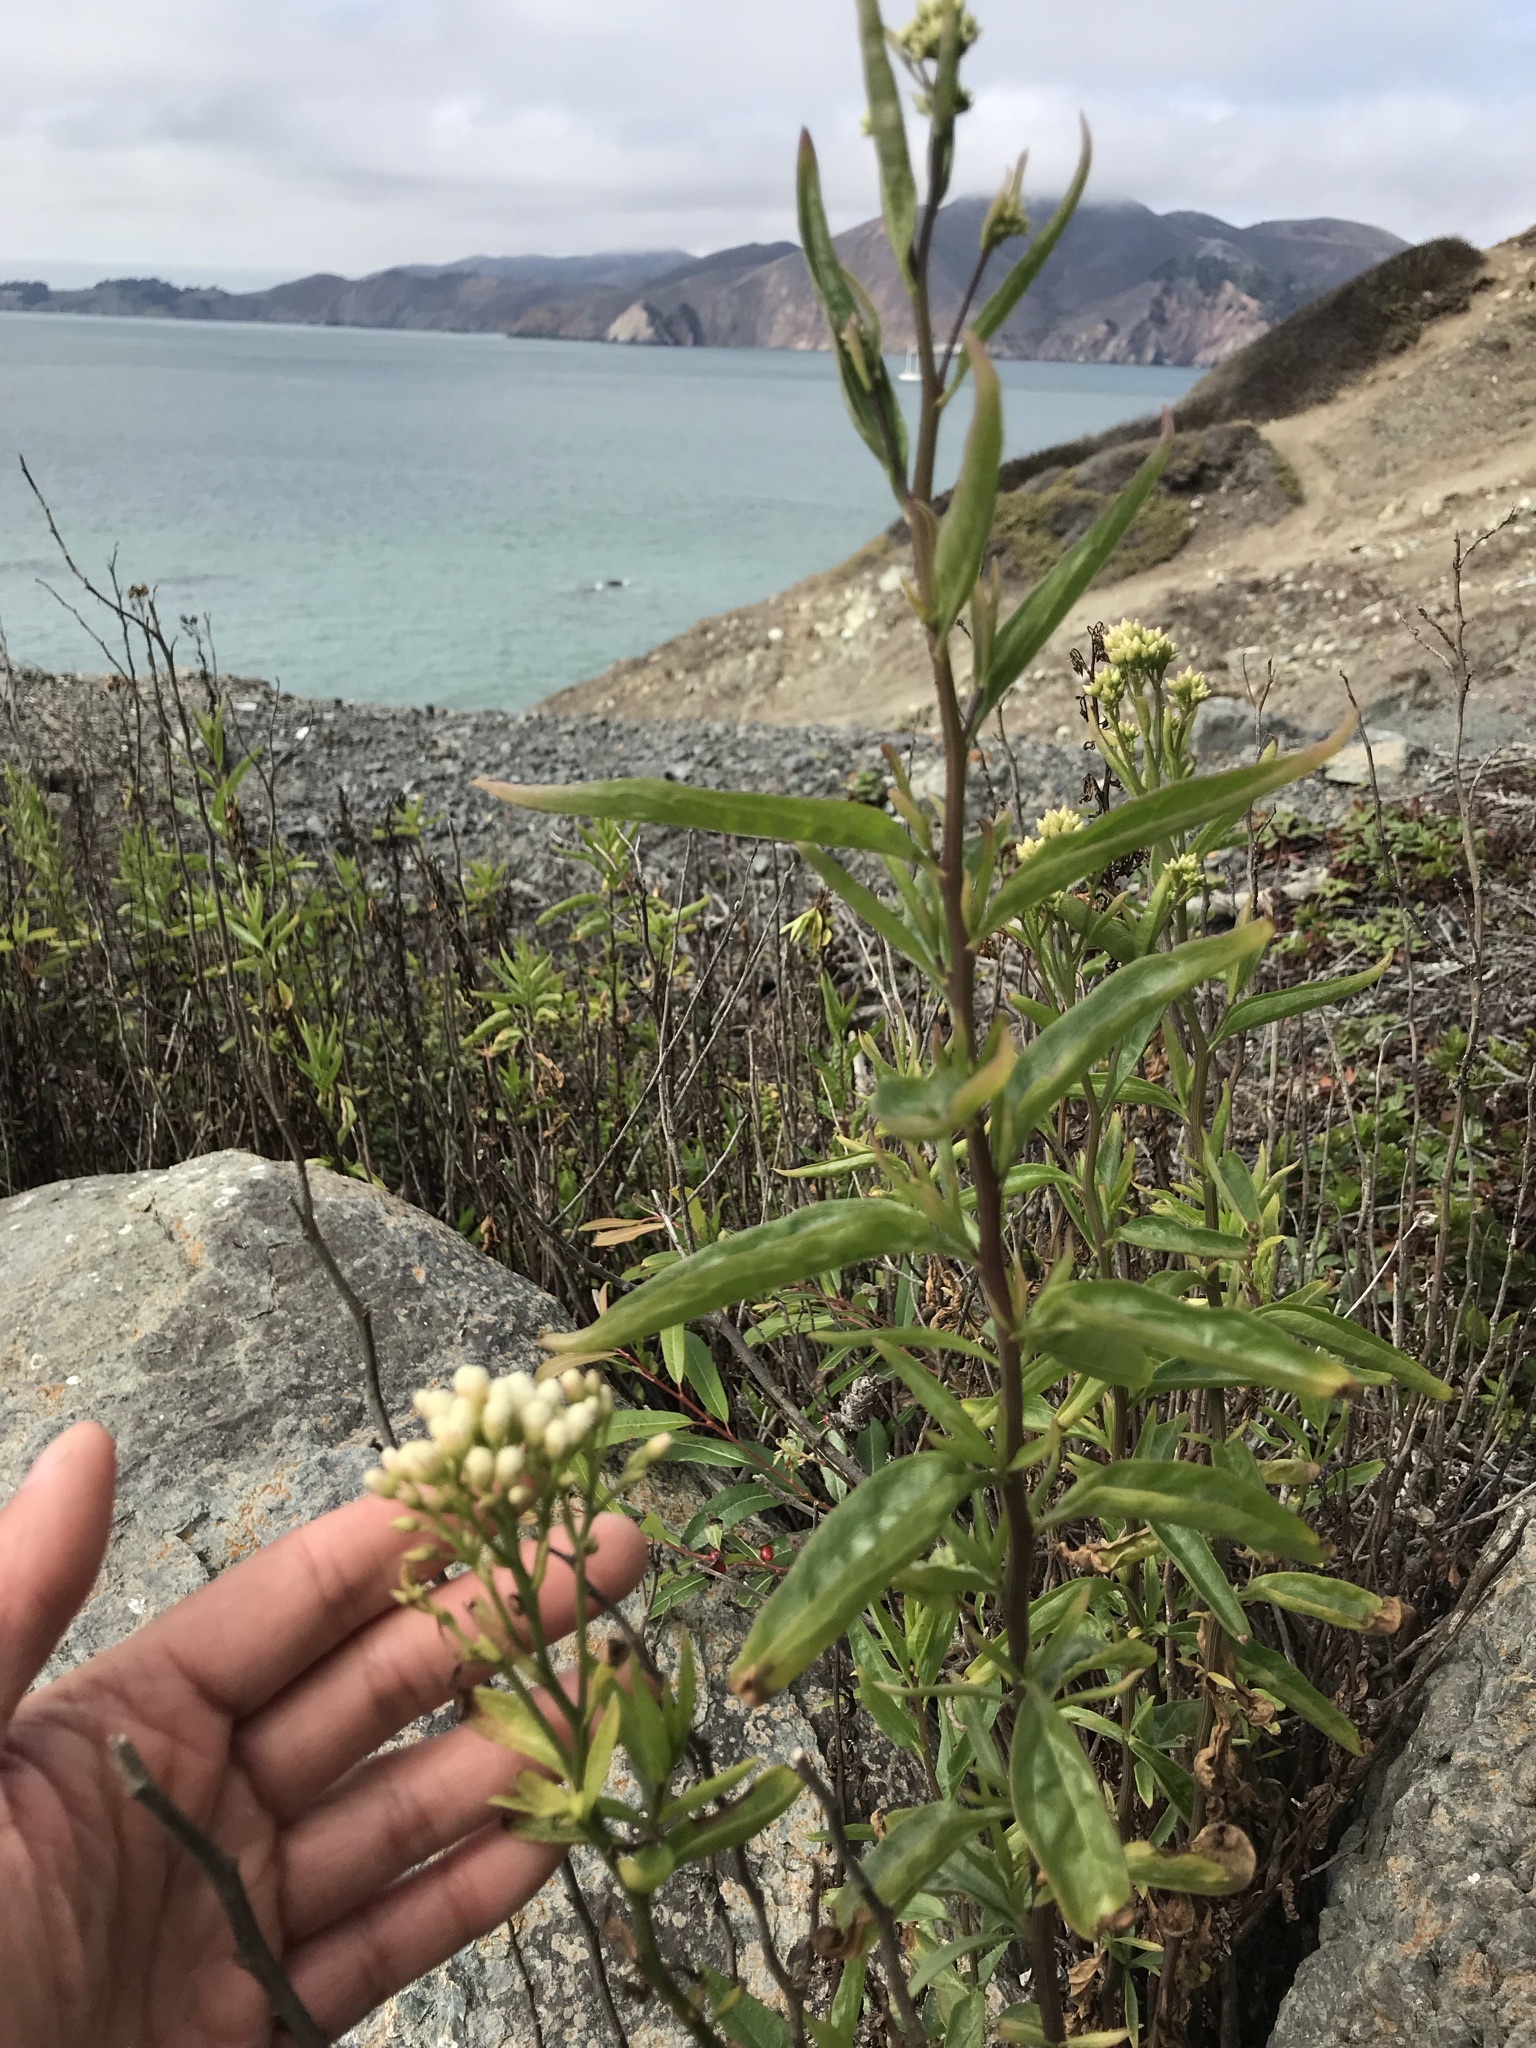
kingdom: Plantae
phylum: Tracheophyta
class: Magnoliopsida
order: Asterales
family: Asteraceae
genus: Baccharis
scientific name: Baccharis glutinosa
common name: Saltmarsh baccharis
